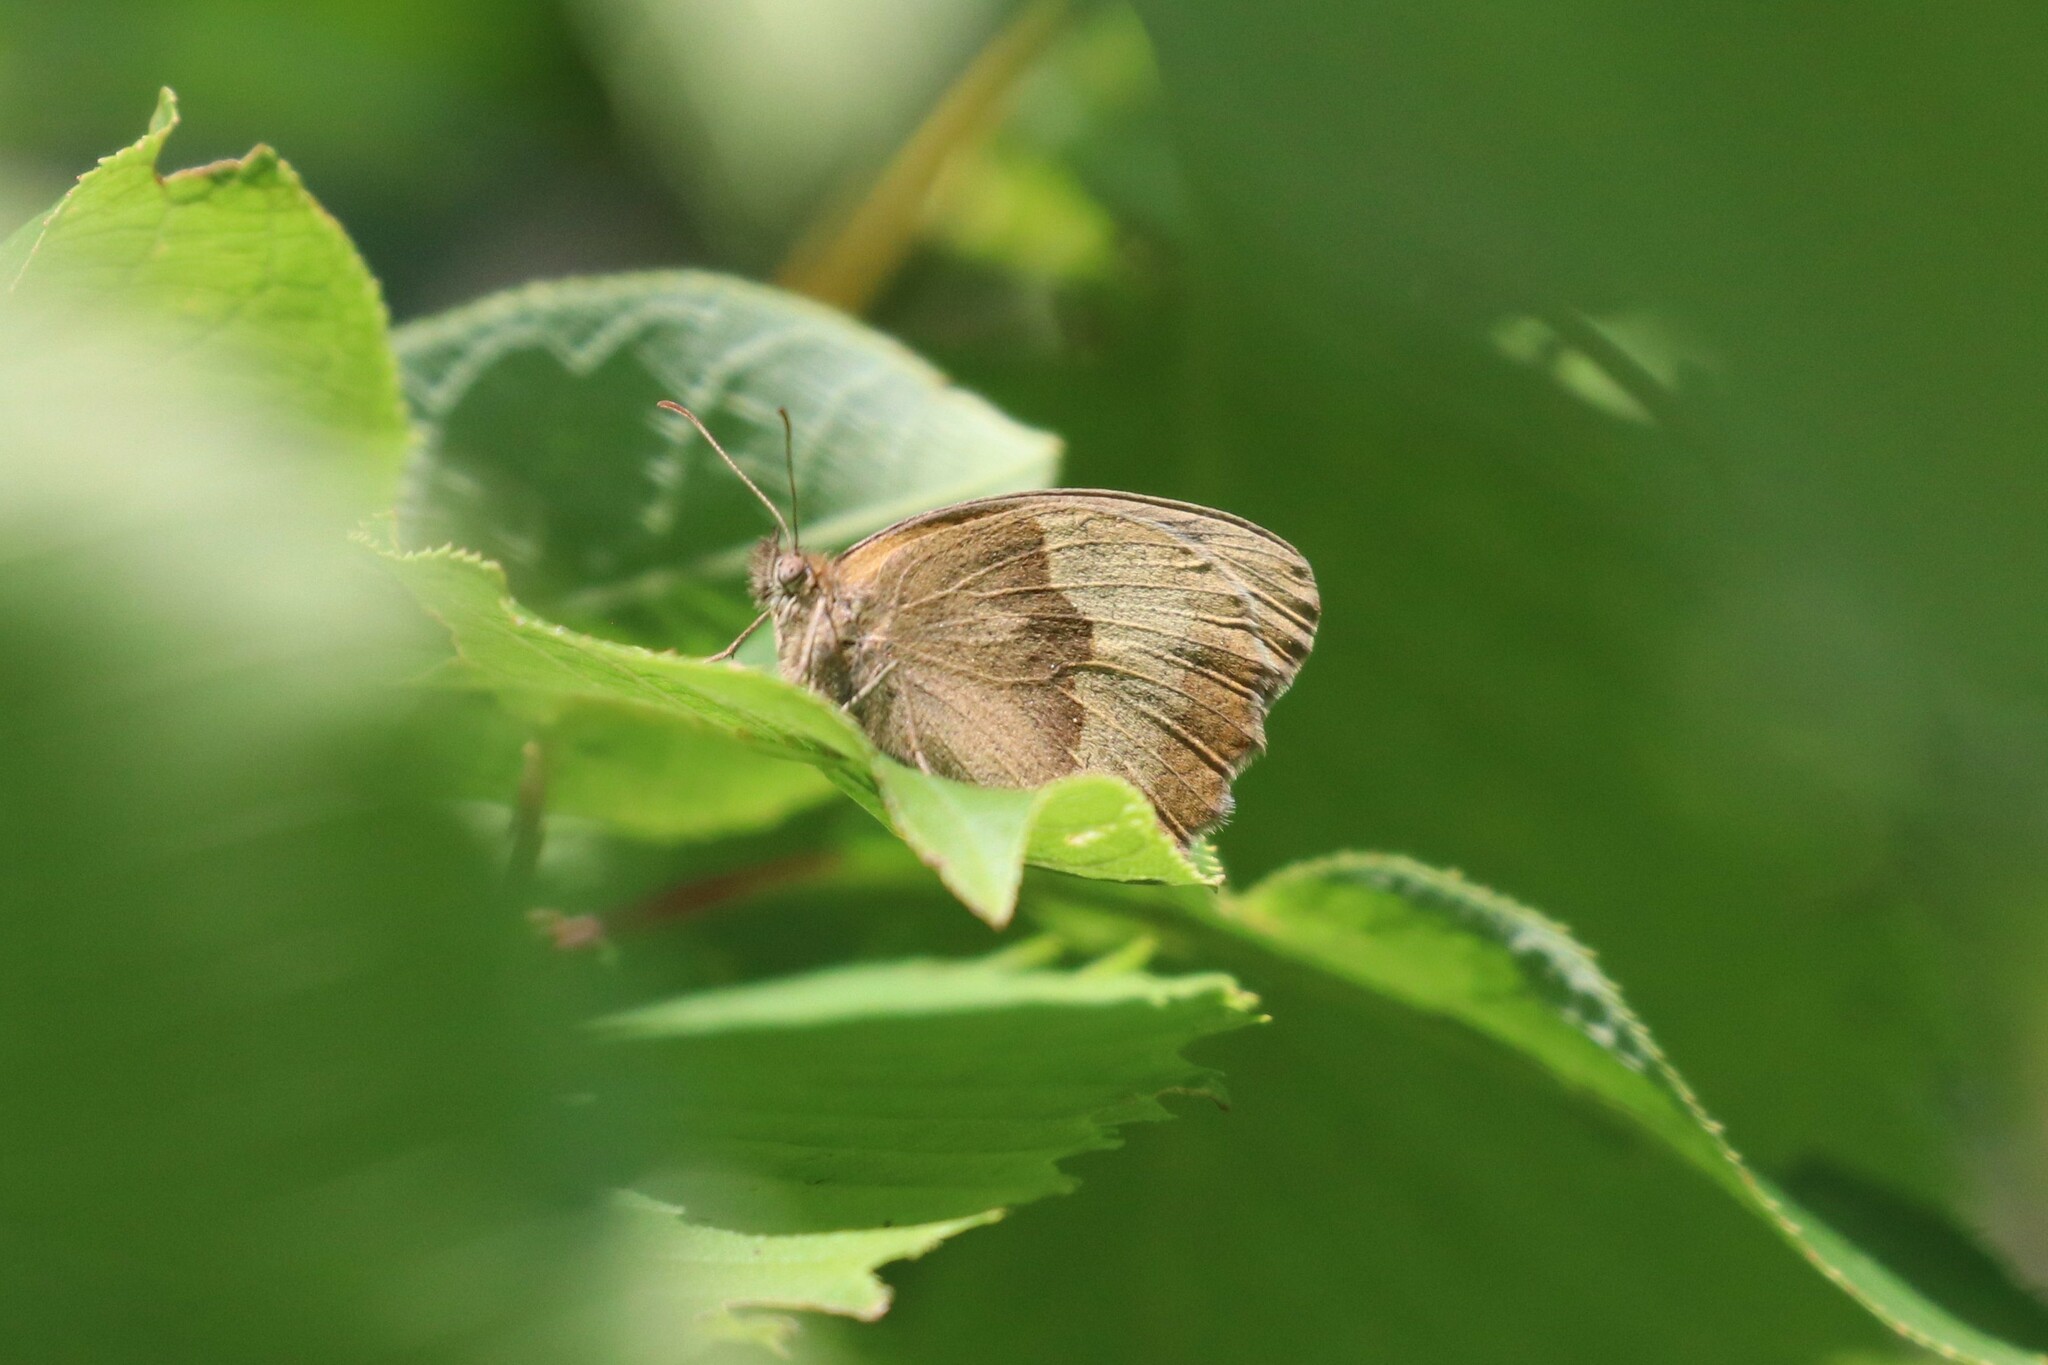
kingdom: Animalia
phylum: Arthropoda
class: Insecta
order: Lepidoptera
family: Nymphalidae
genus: Maniola
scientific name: Maniola jurtina
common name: Meadow brown
